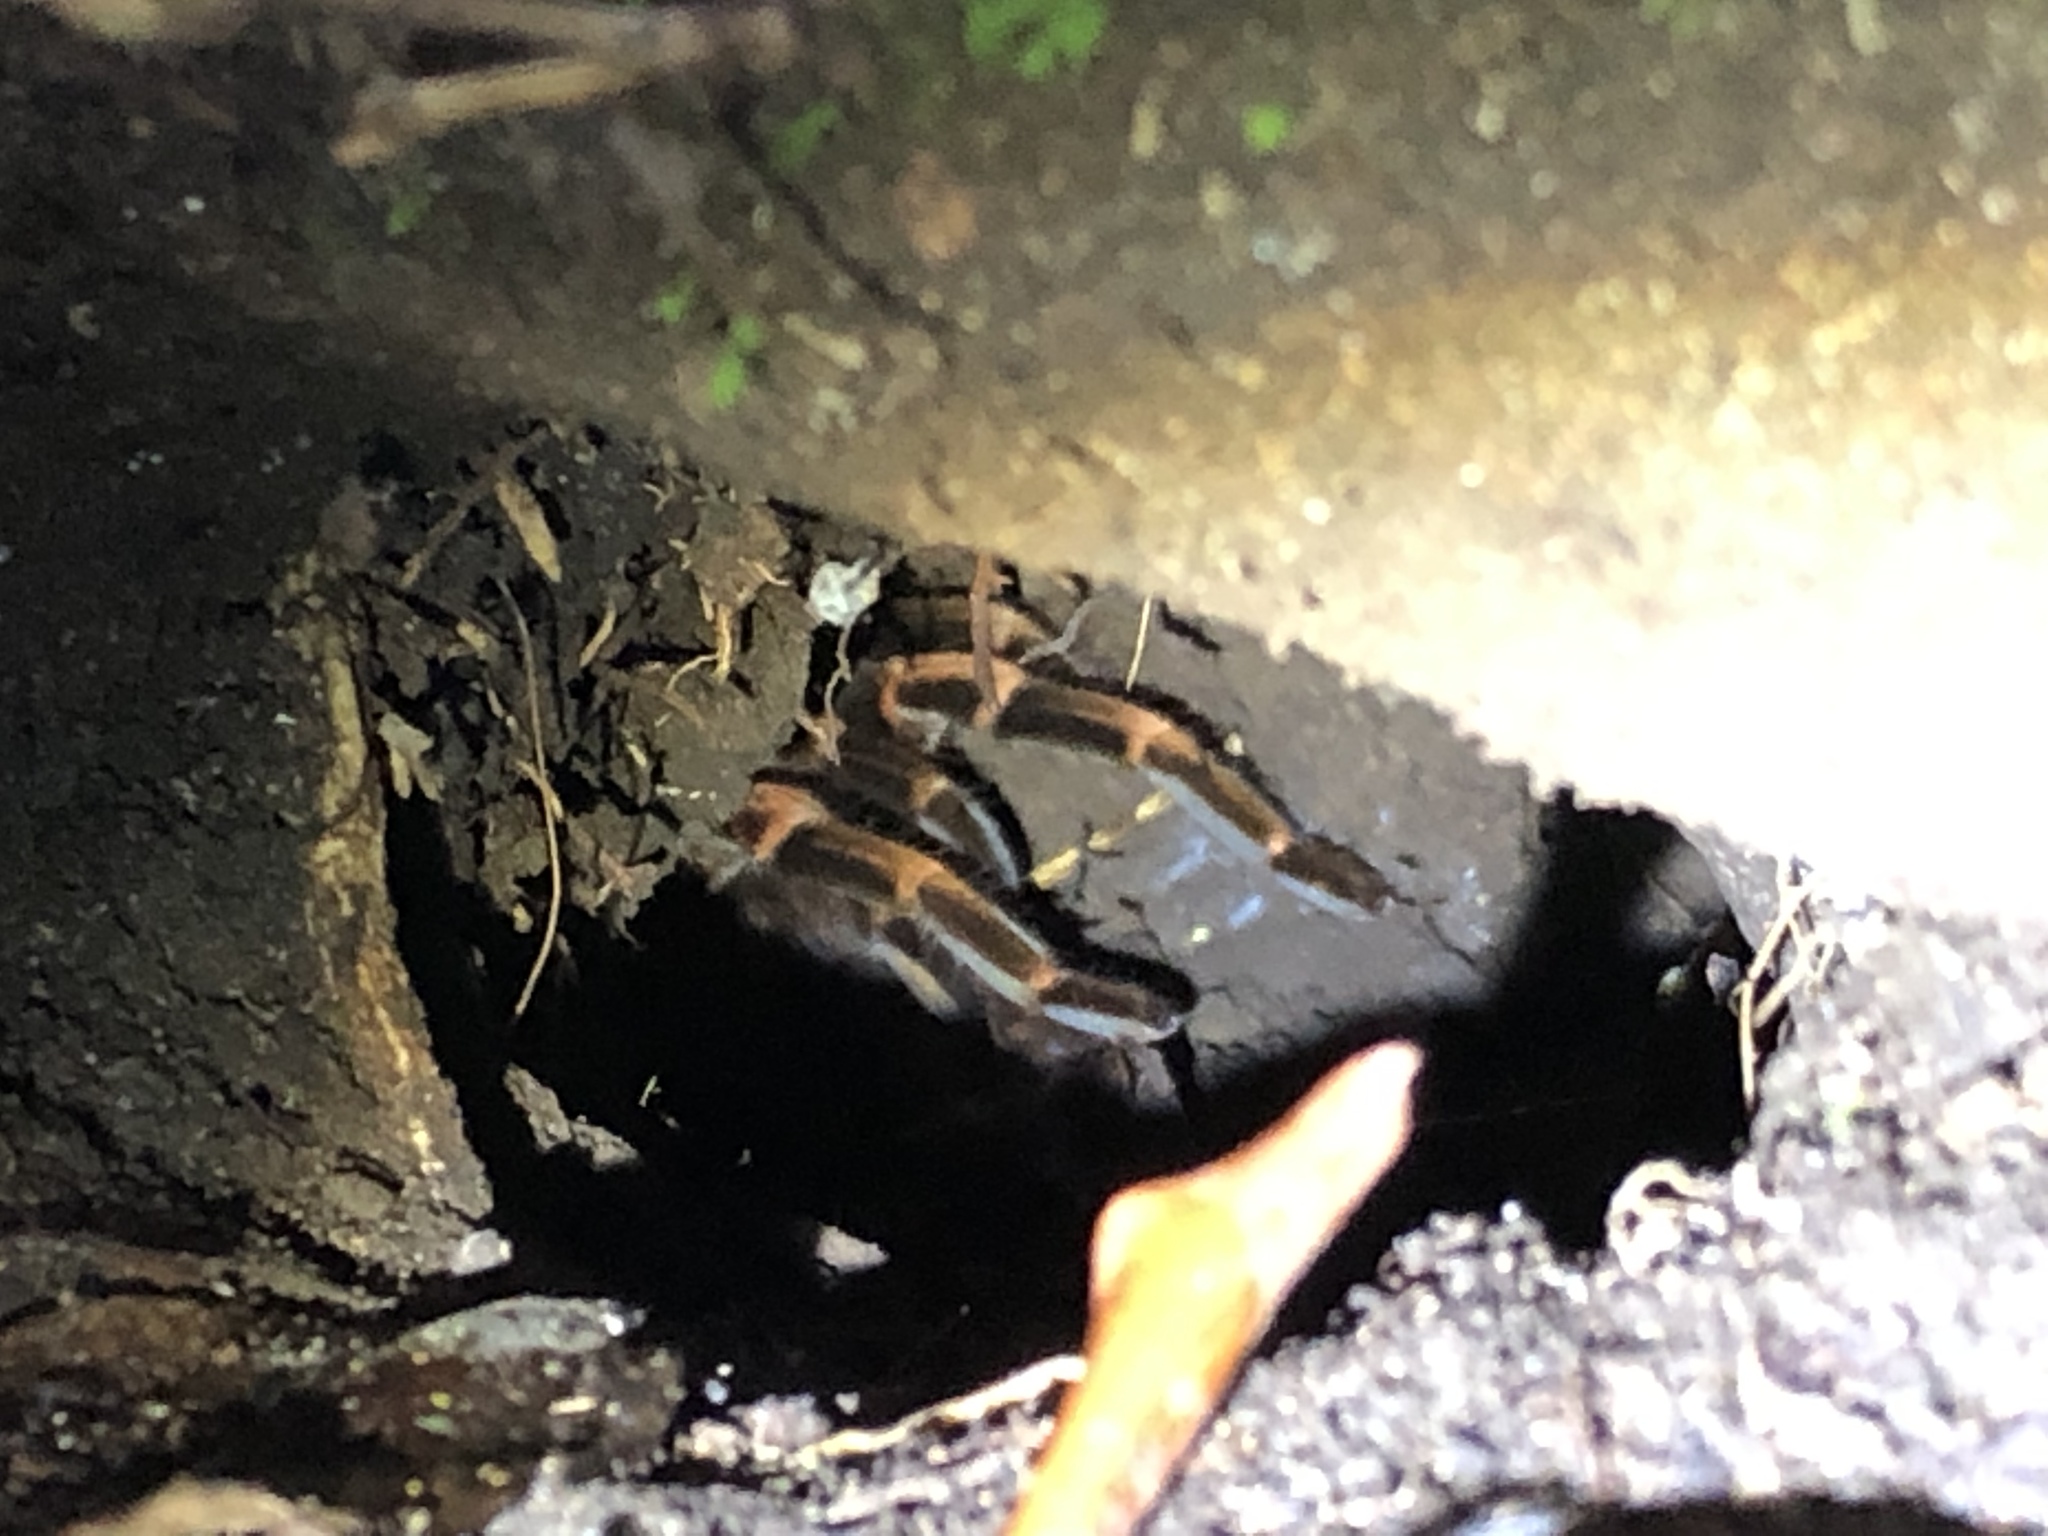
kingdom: Animalia
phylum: Arthropoda
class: Arachnida
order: Araneae
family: Theraphosidae
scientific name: Theraphosidae
